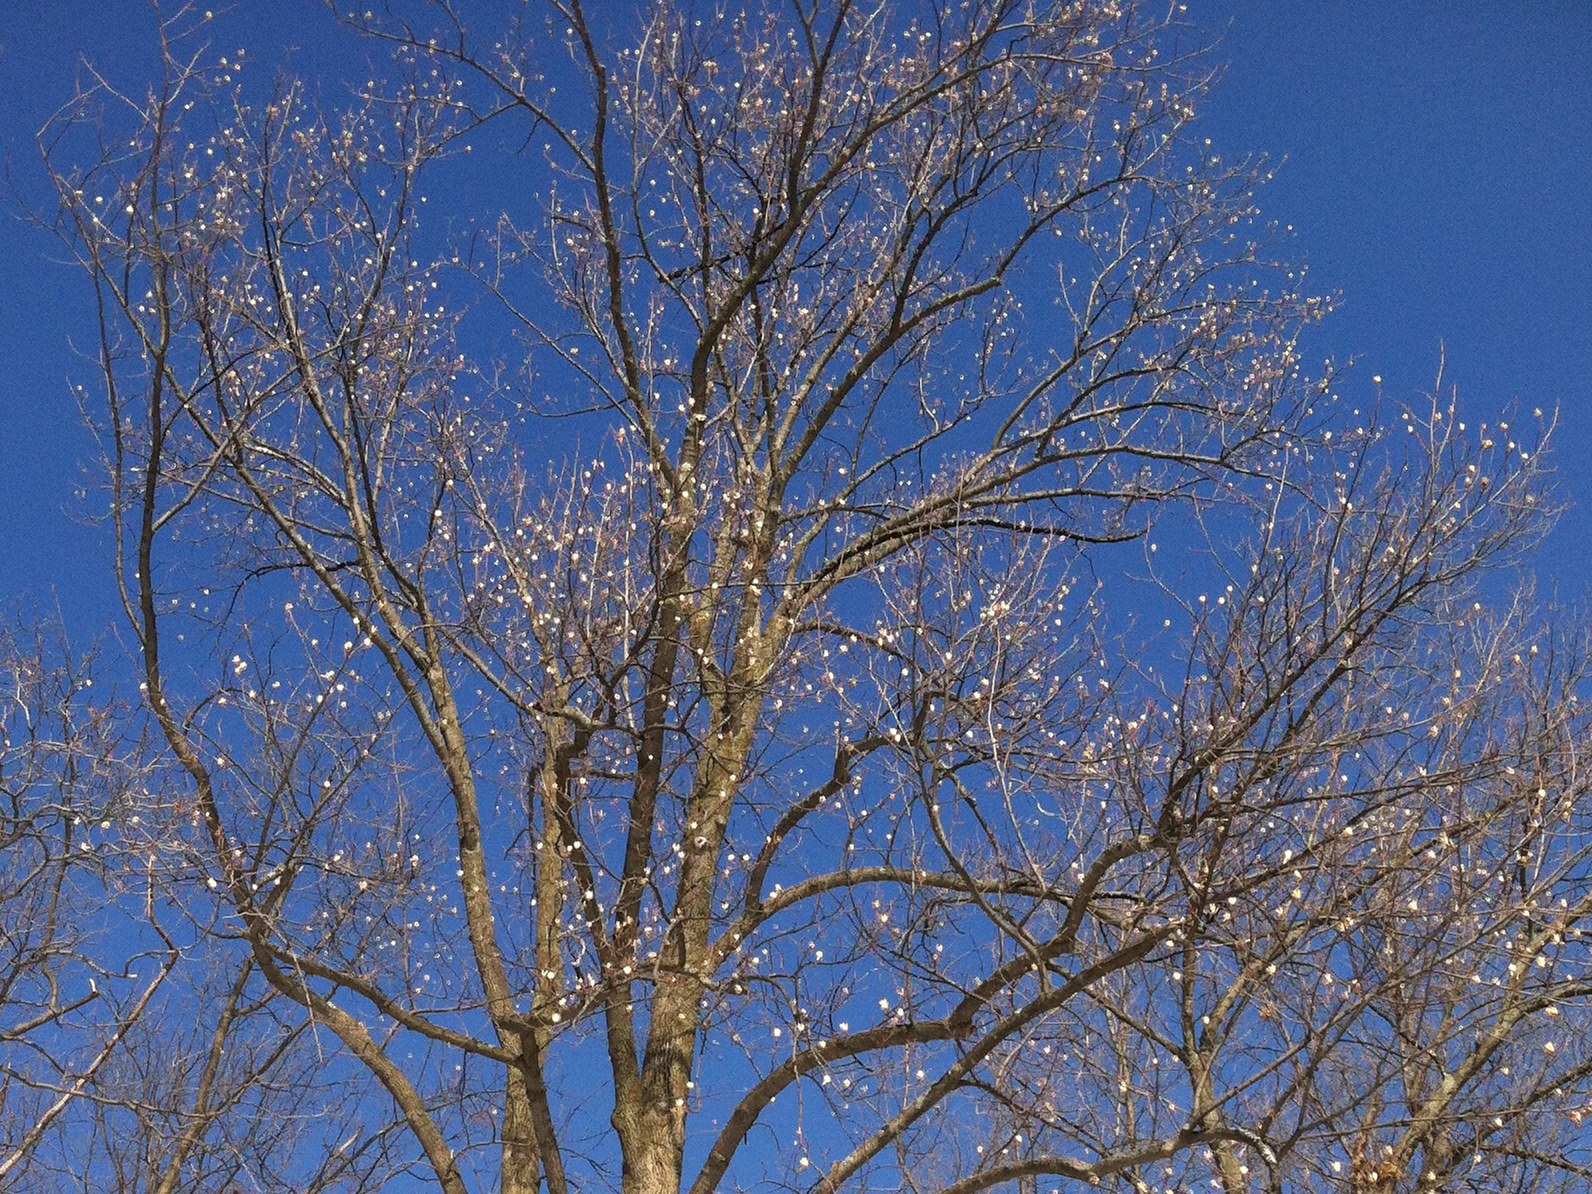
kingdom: Plantae
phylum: Tracheophyta
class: Magnoliopsida
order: Magnoliales
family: Magnoliaceae
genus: Liriodendron
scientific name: Liriodendron tulipifera
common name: Tulip tree
